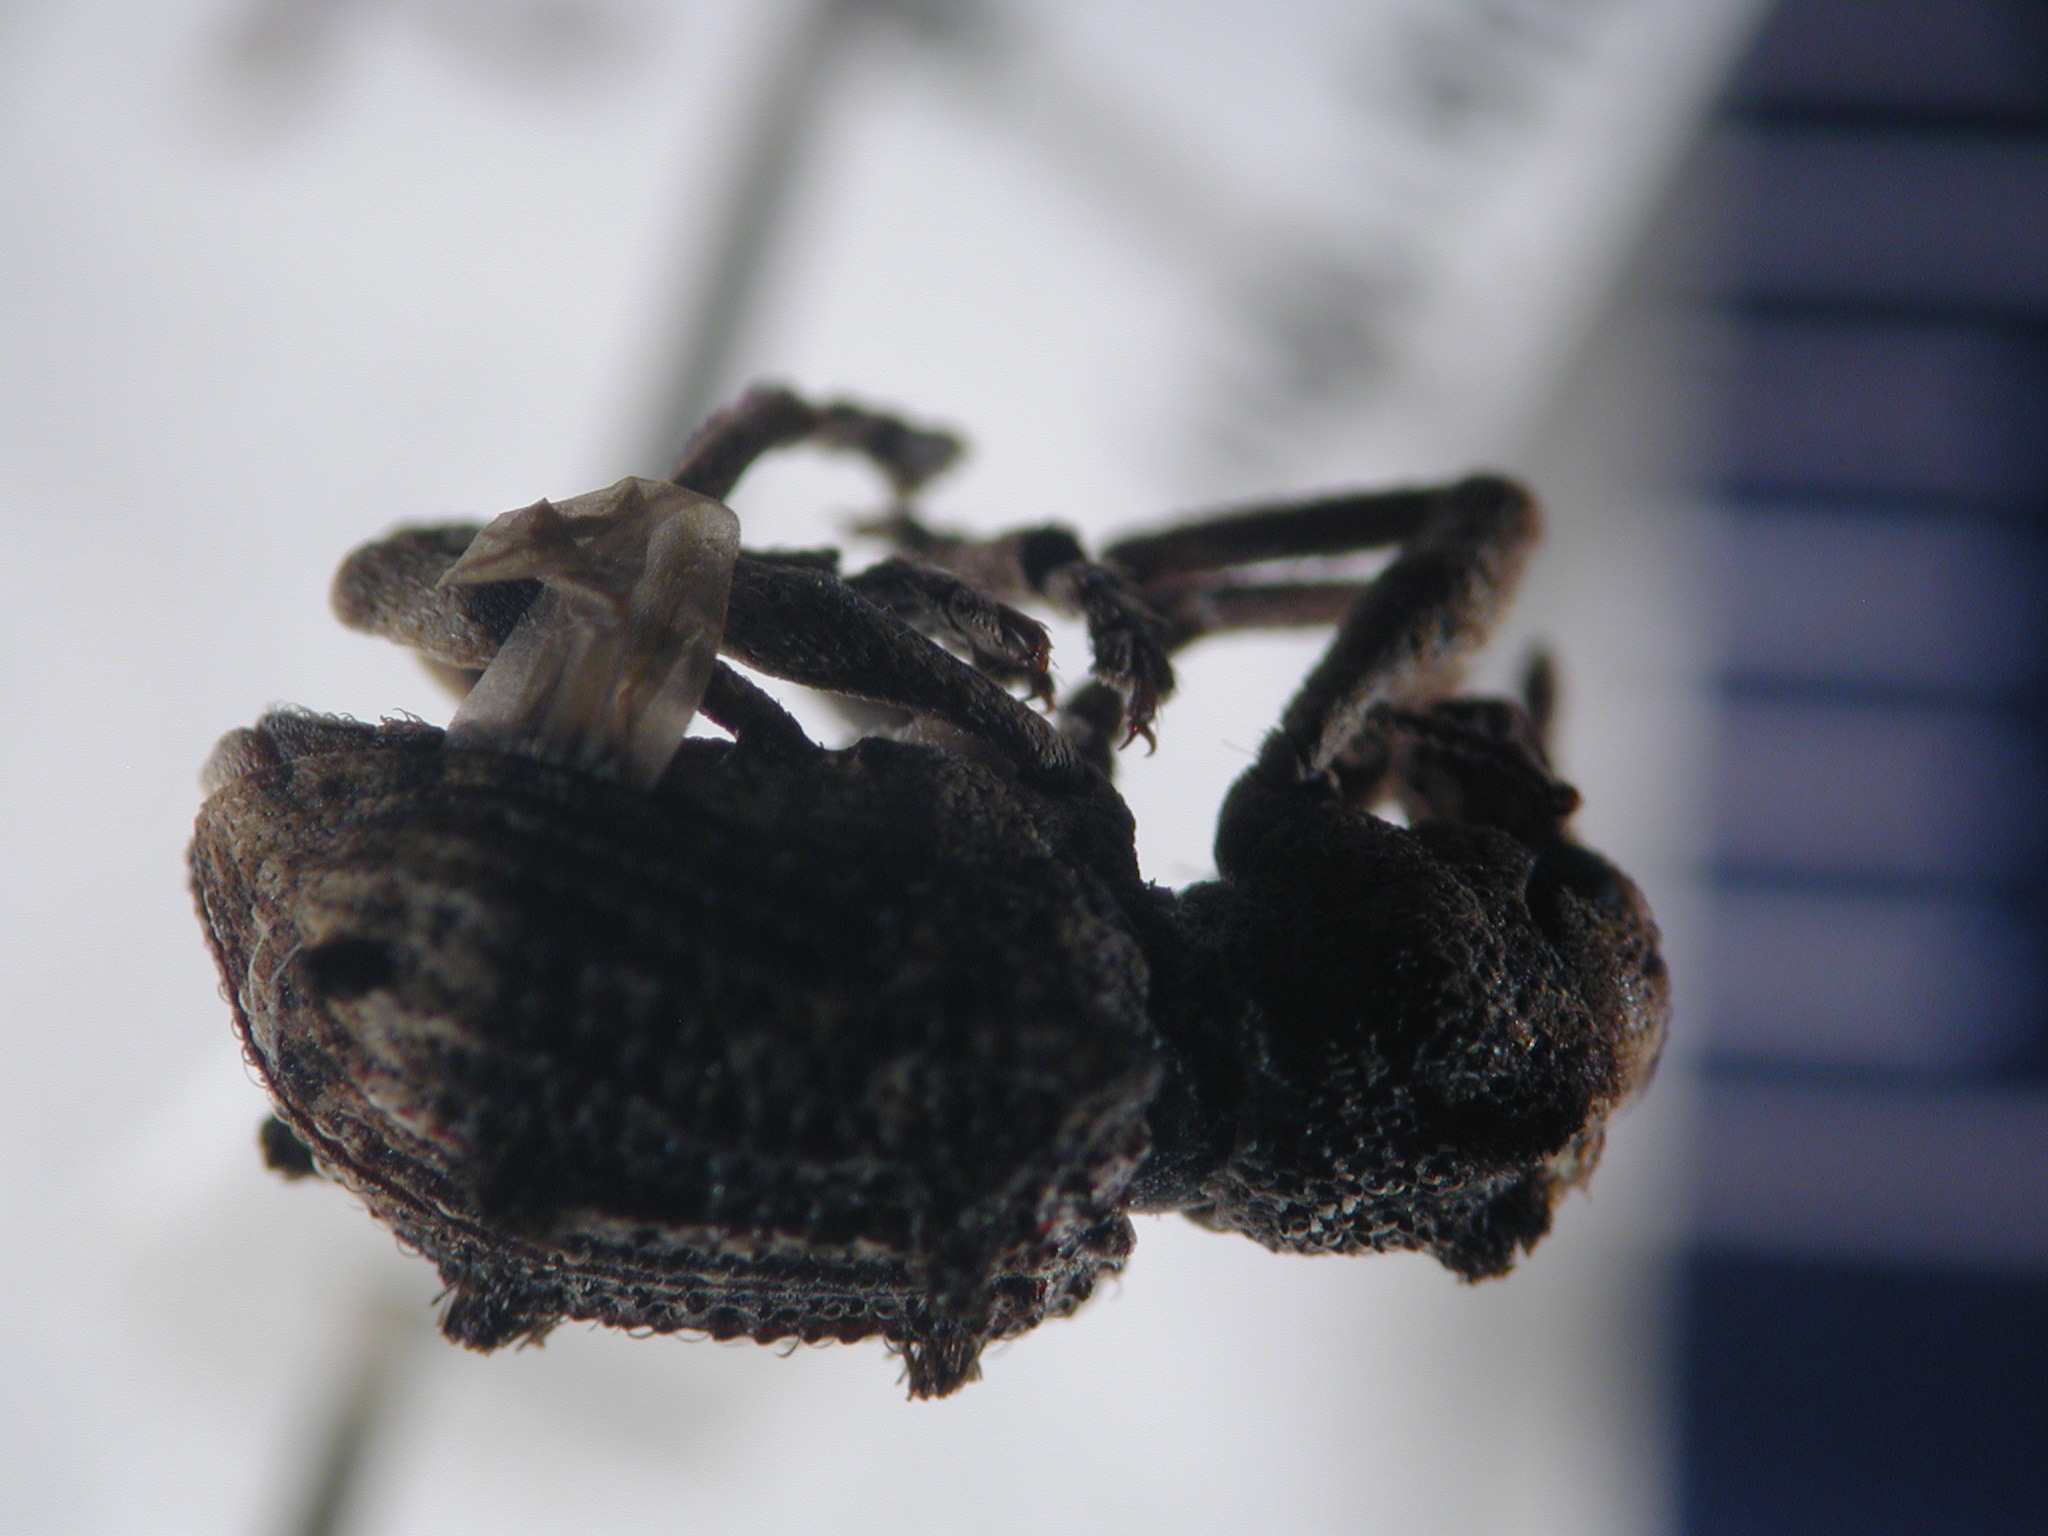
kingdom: Animalia
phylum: Arthropoda
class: Insecta
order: Coleoptera
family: Curculionidae
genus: Aades
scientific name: Aades cultratus
